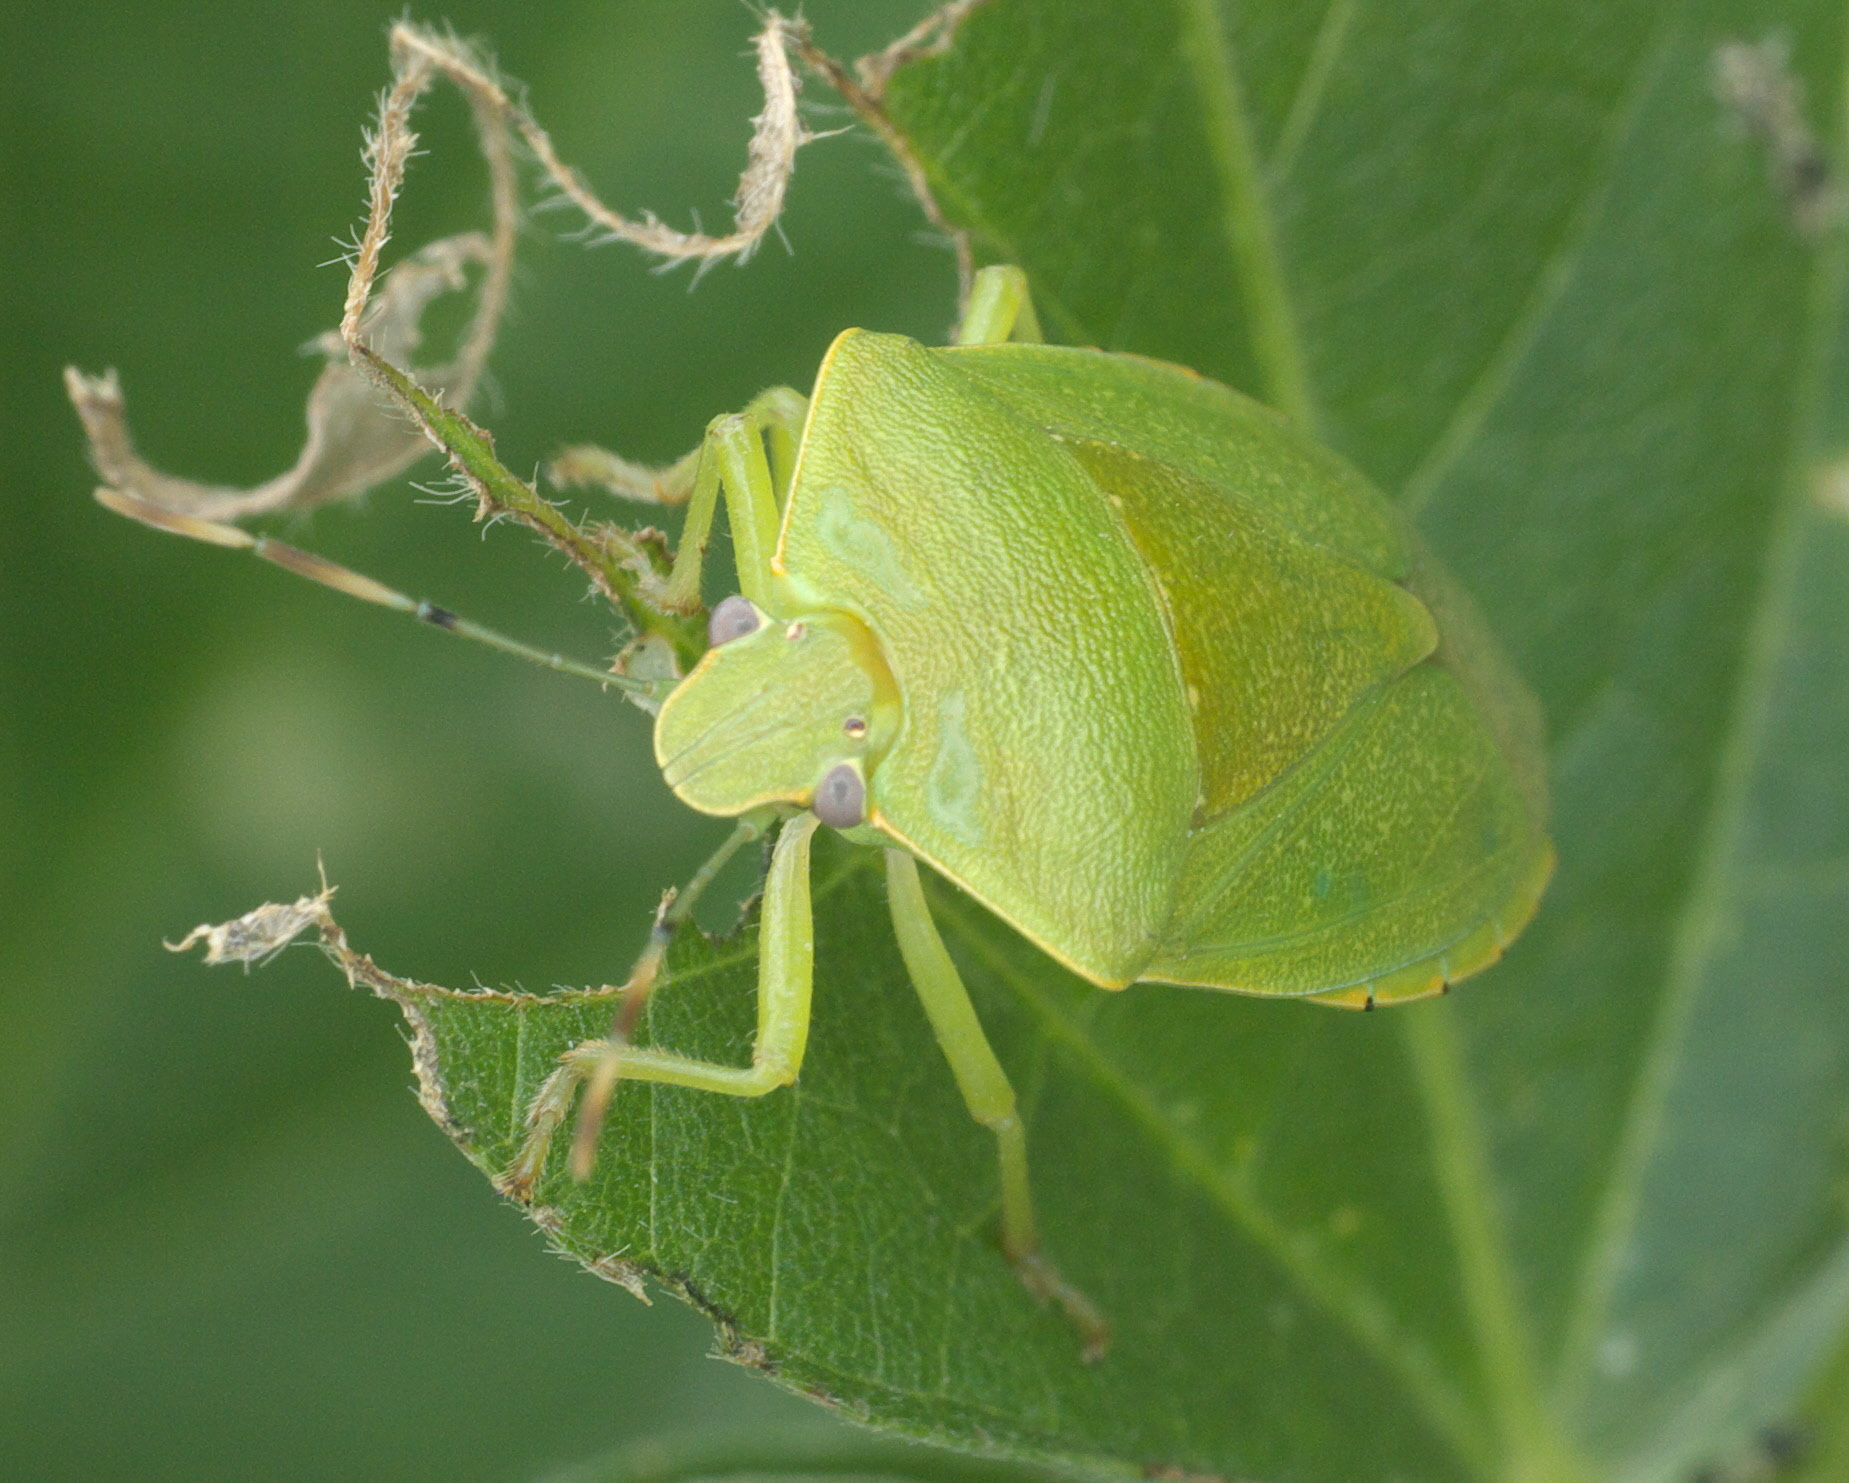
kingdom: Animalia
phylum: Arthropoda
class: Insecta
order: Hemiptera
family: Pentatomidae
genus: Chinavia
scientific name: Chinavia hilaris
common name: Green stink bug
